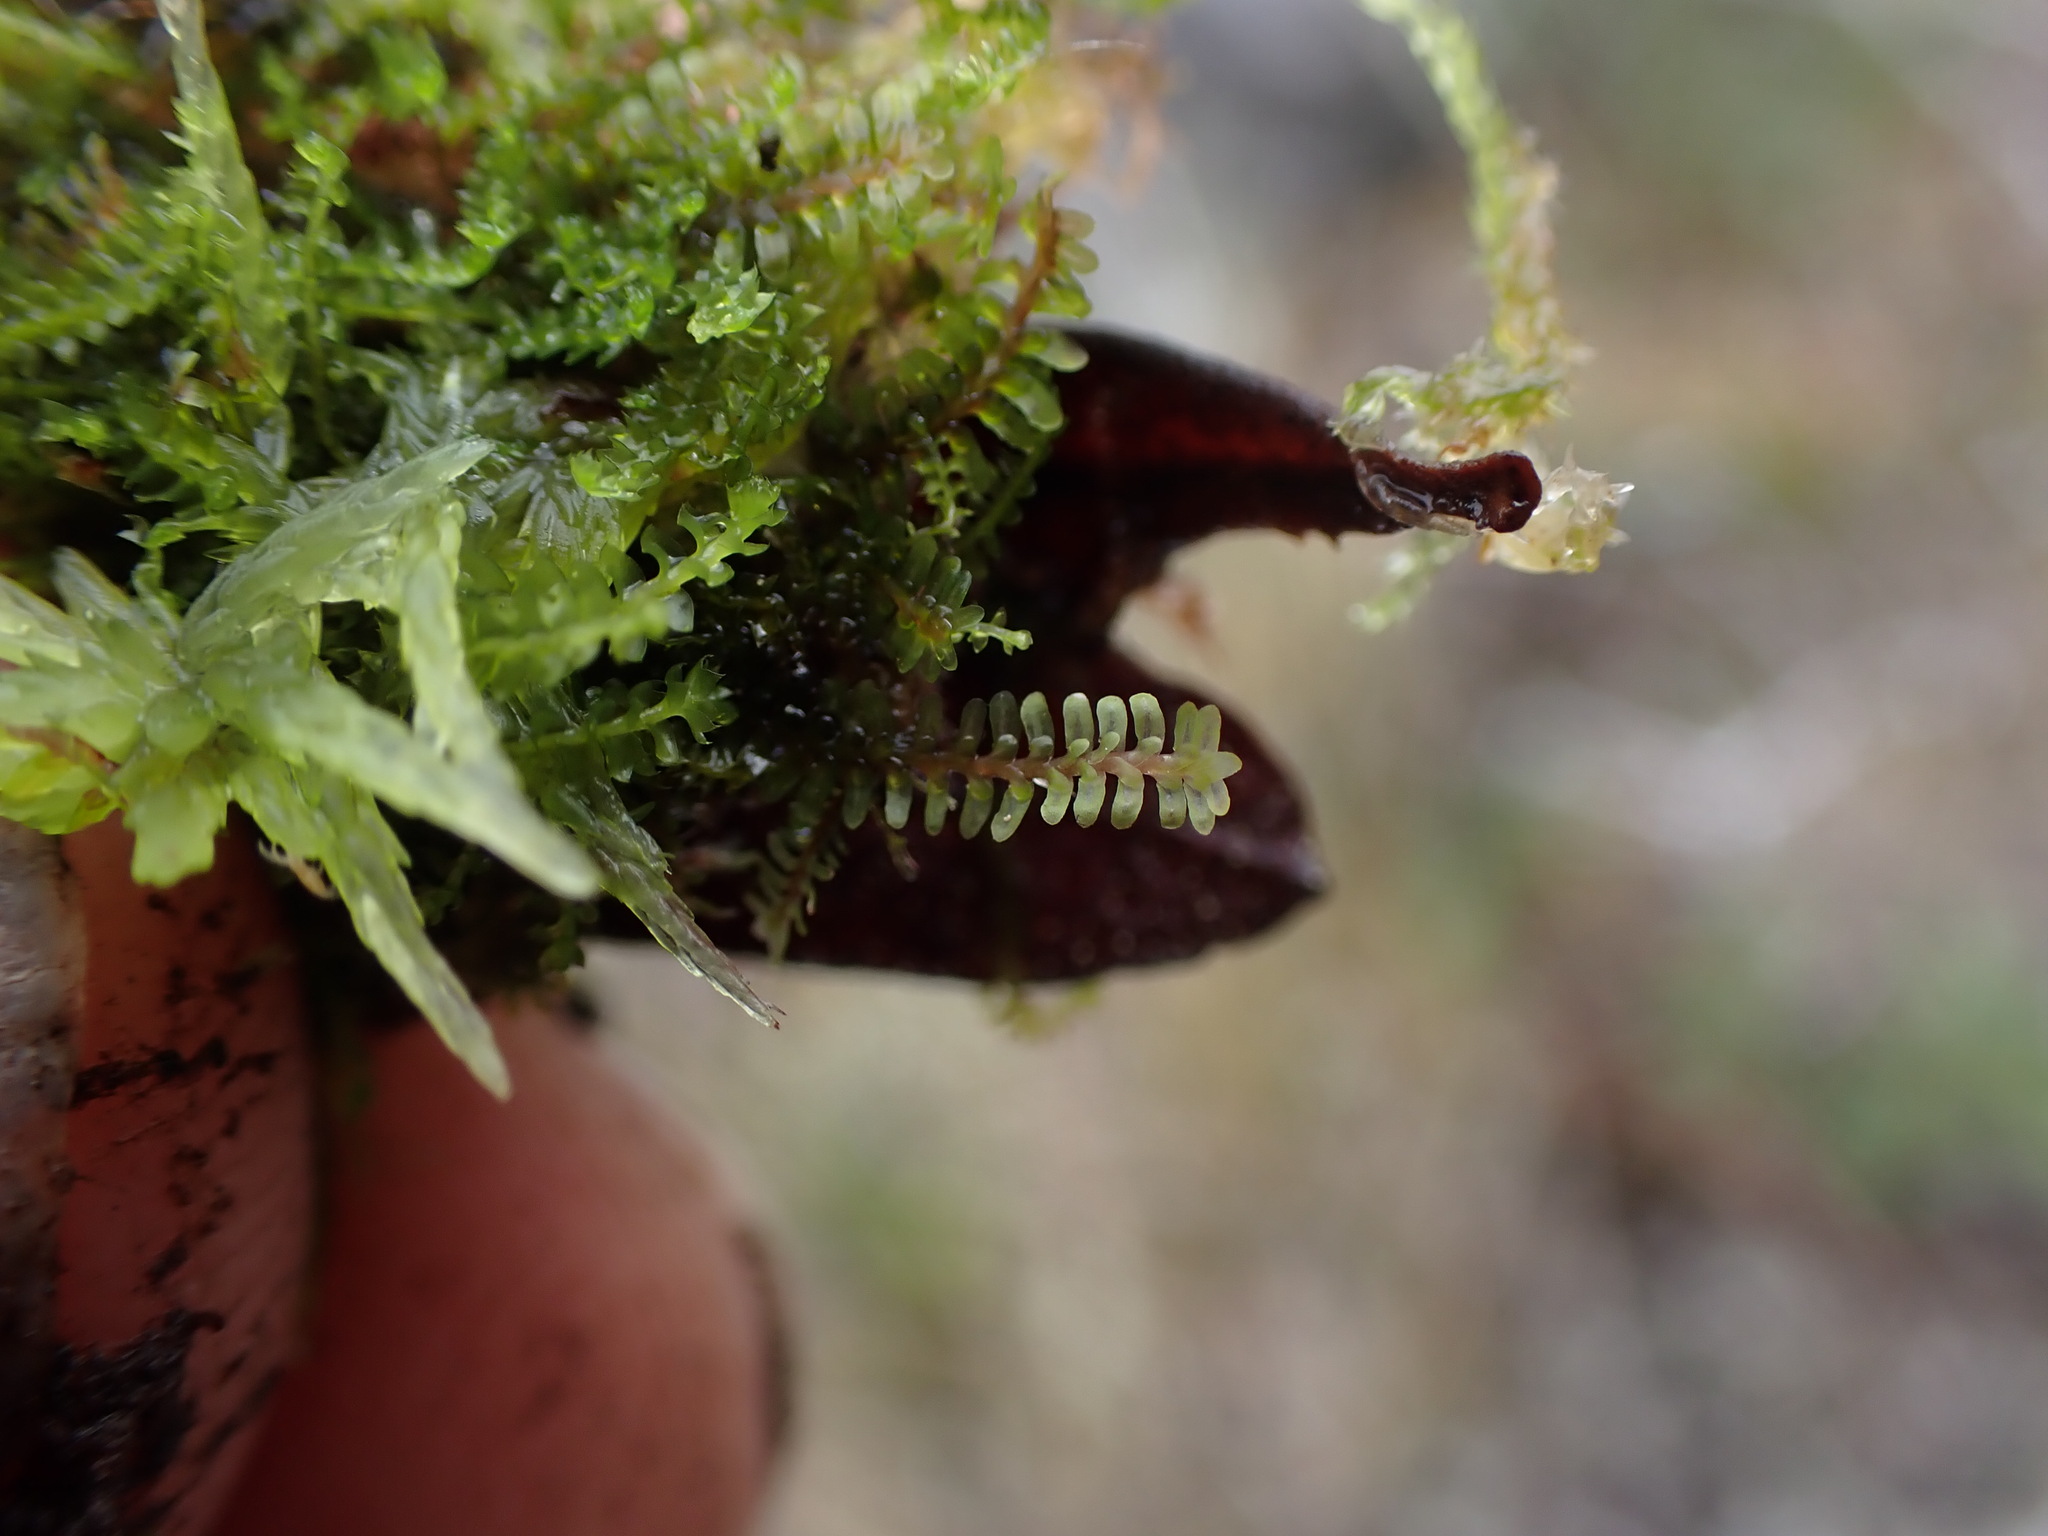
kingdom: Plantae
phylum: Marchantiophyta
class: Jungermanniopsida
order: Jungermanniales
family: Scapaniaceae
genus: Diplophyllum
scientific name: Diplophyllum albicans
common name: White earwort
